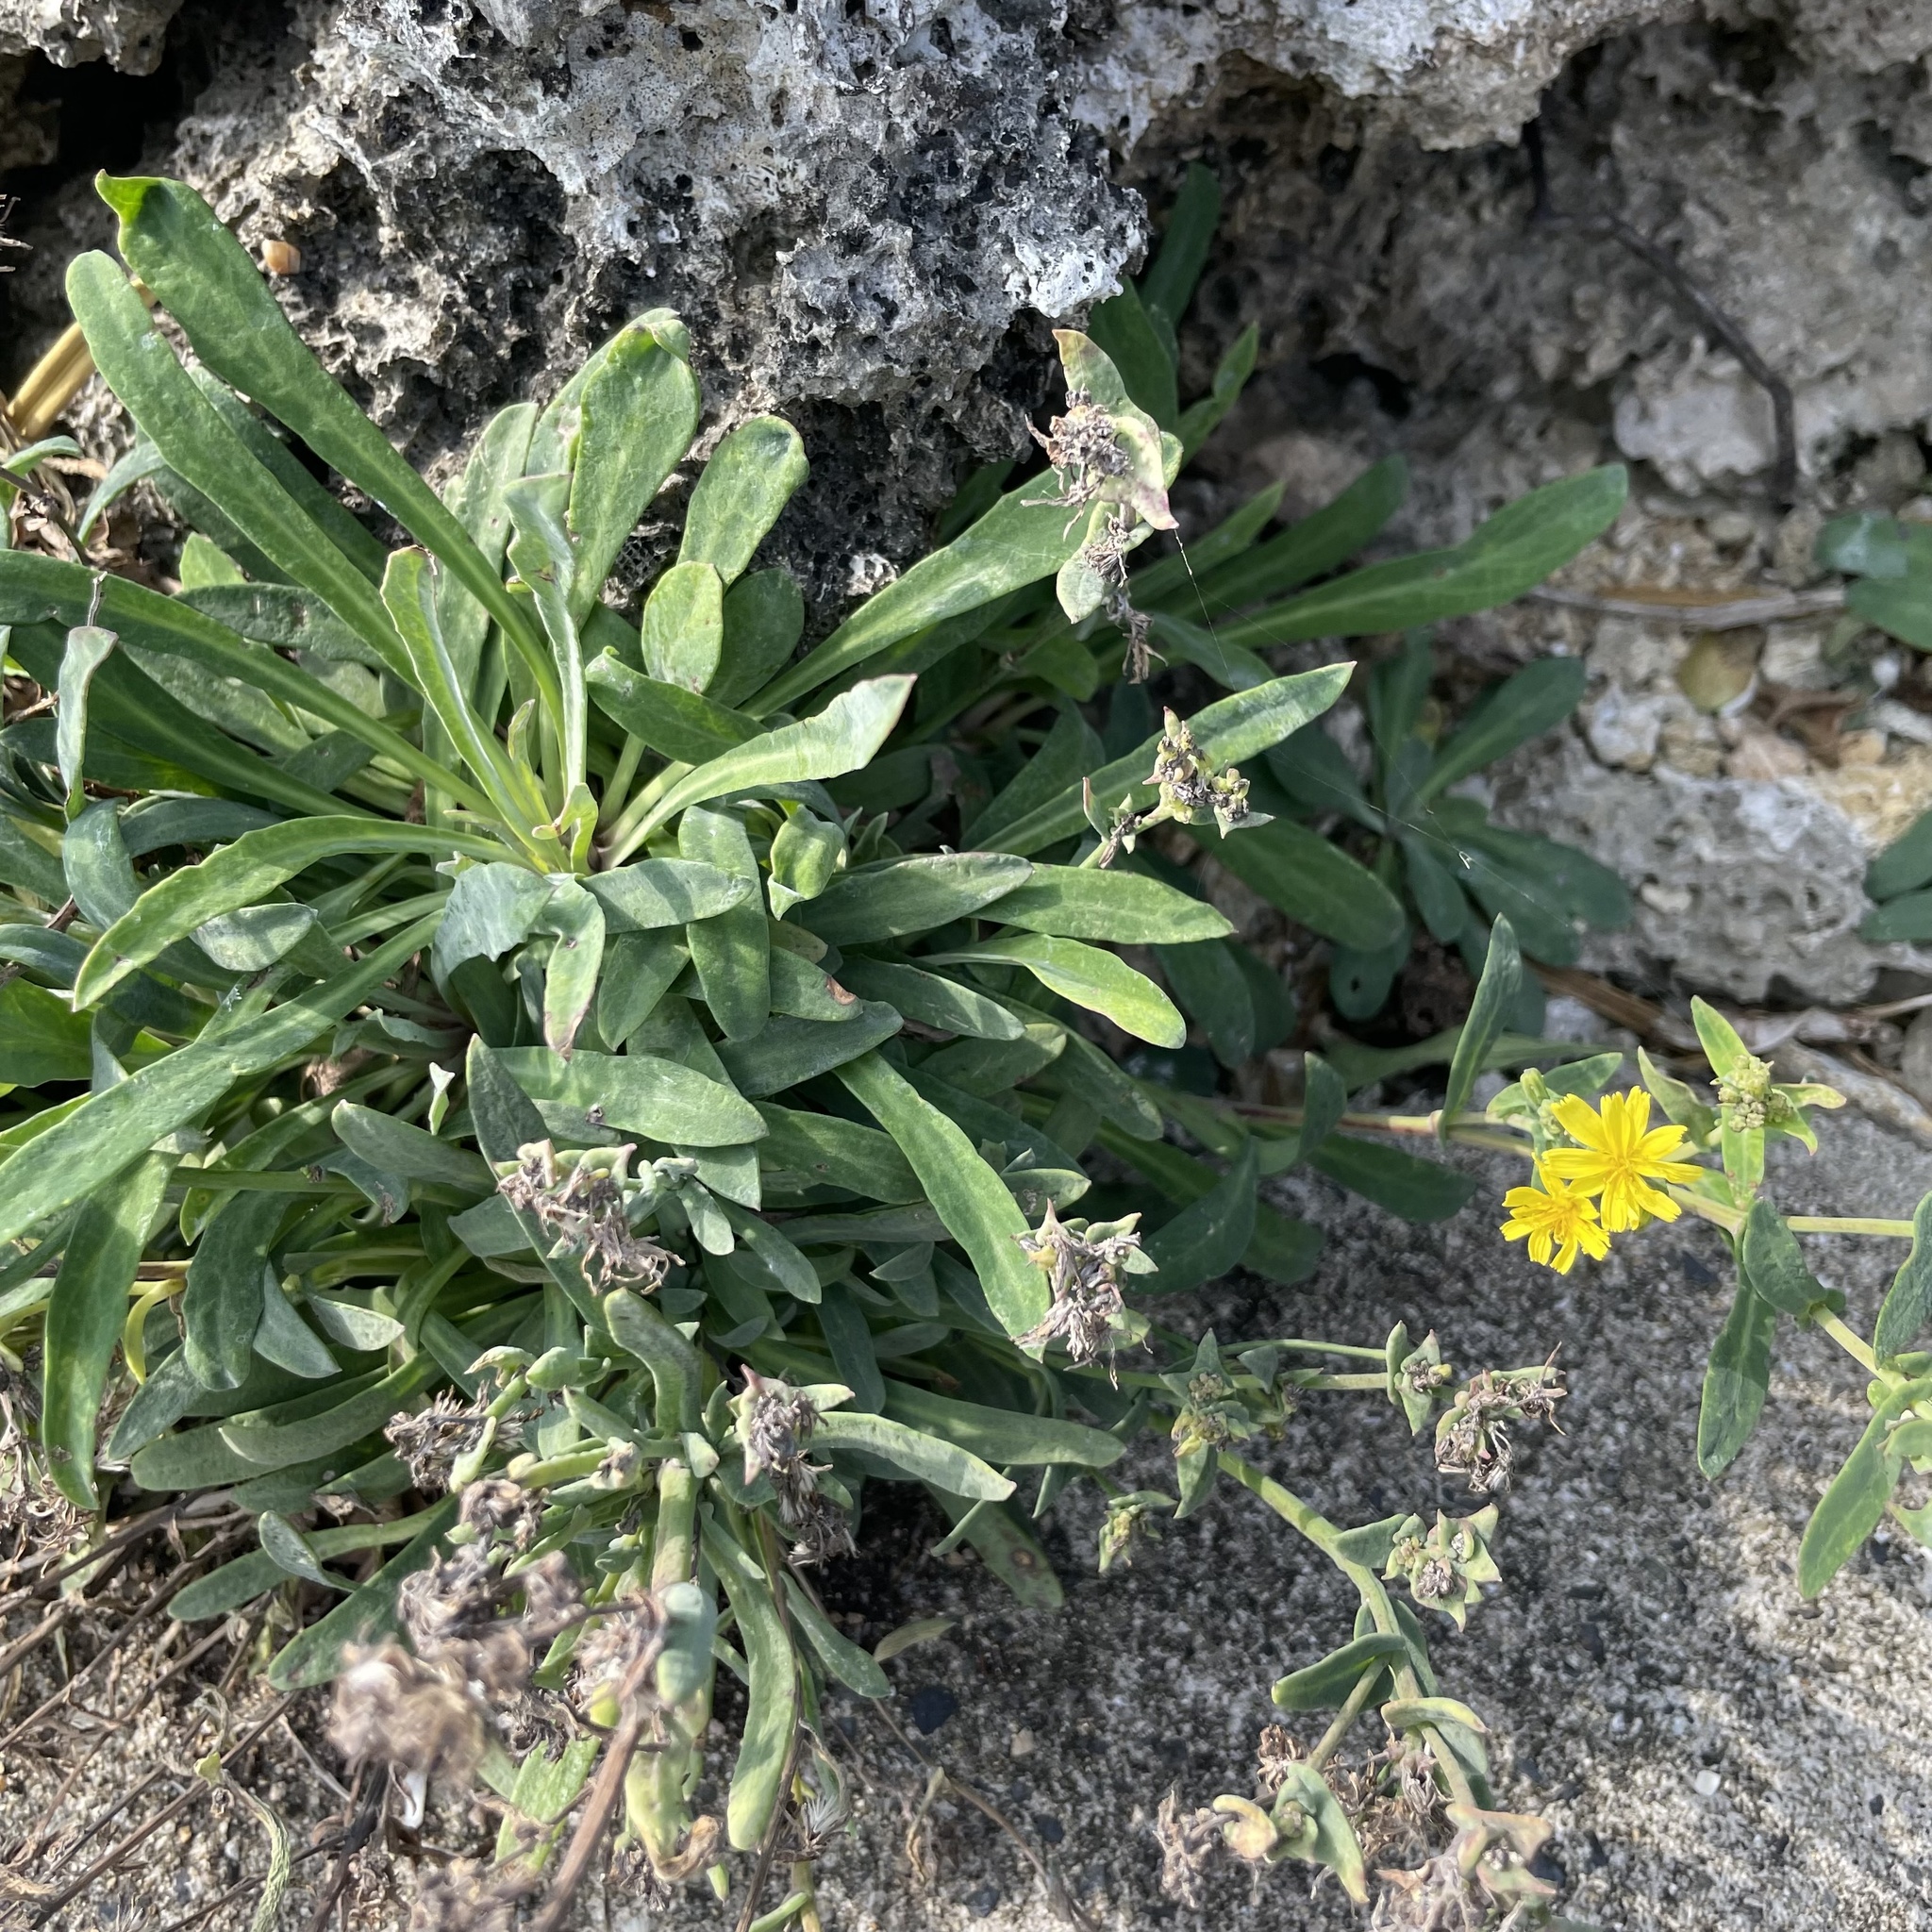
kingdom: Plantae
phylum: Tracheophyta
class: Magnoliopsida
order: Asterales
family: Asteraceae
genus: Crepidiastrum
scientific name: Crepidiastrum lanceolatum
